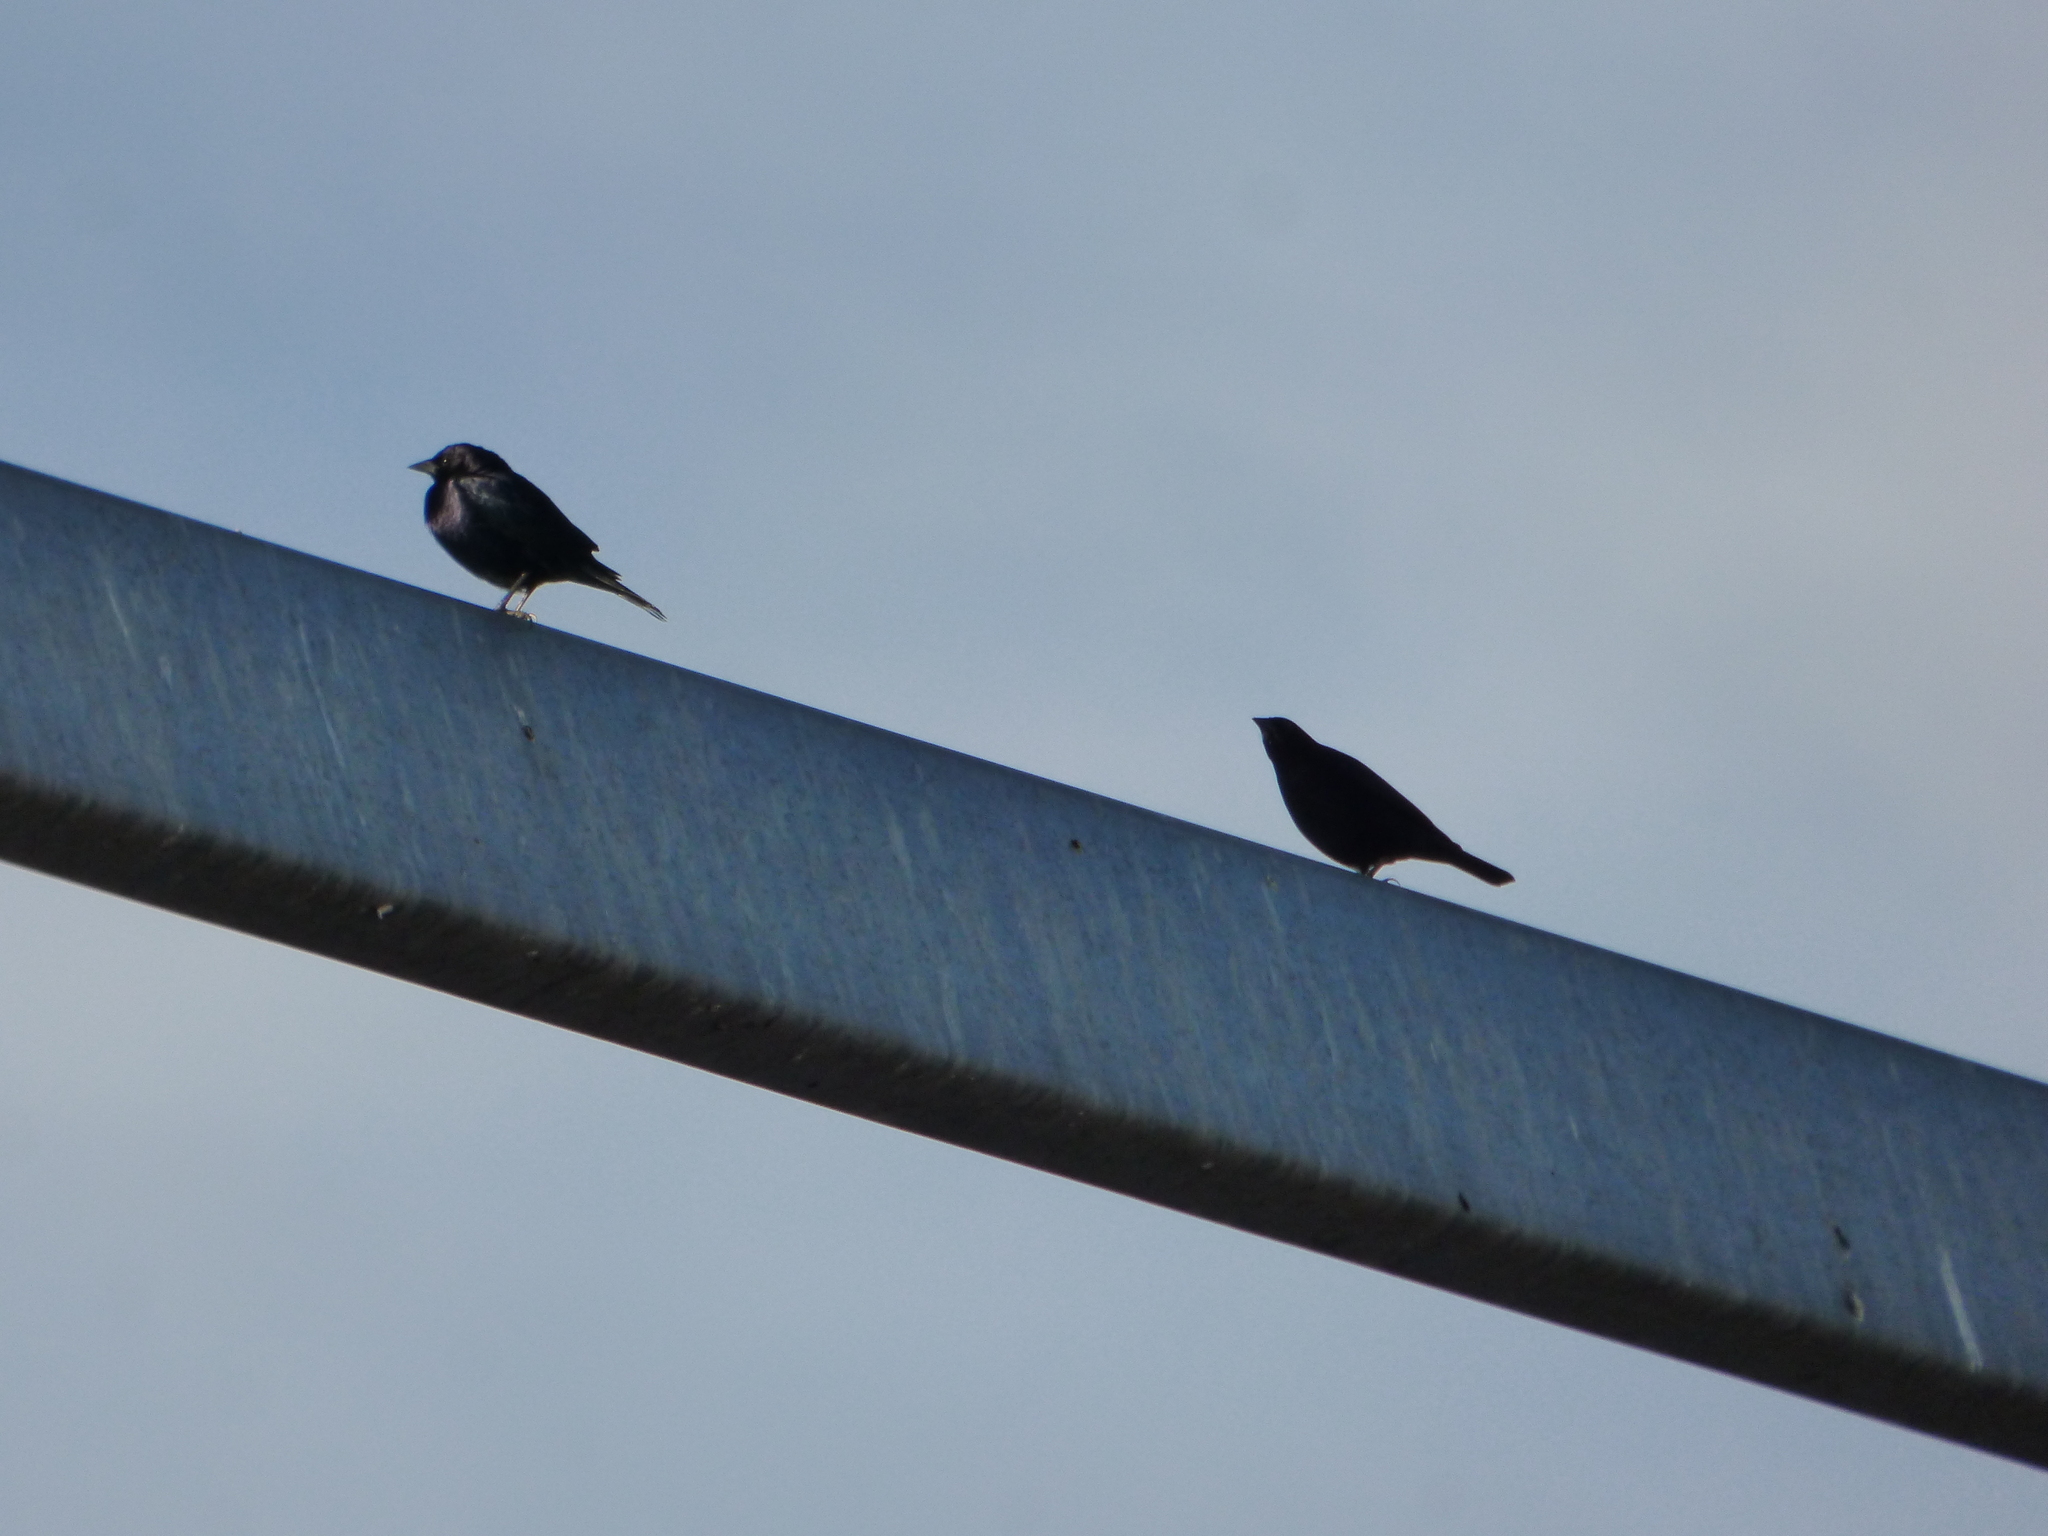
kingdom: Animalia
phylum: Chordata
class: Aves
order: Passeriformes
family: Icteridae
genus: Molothrus
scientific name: Molothrus bonariensis
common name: Shiny cowbird
